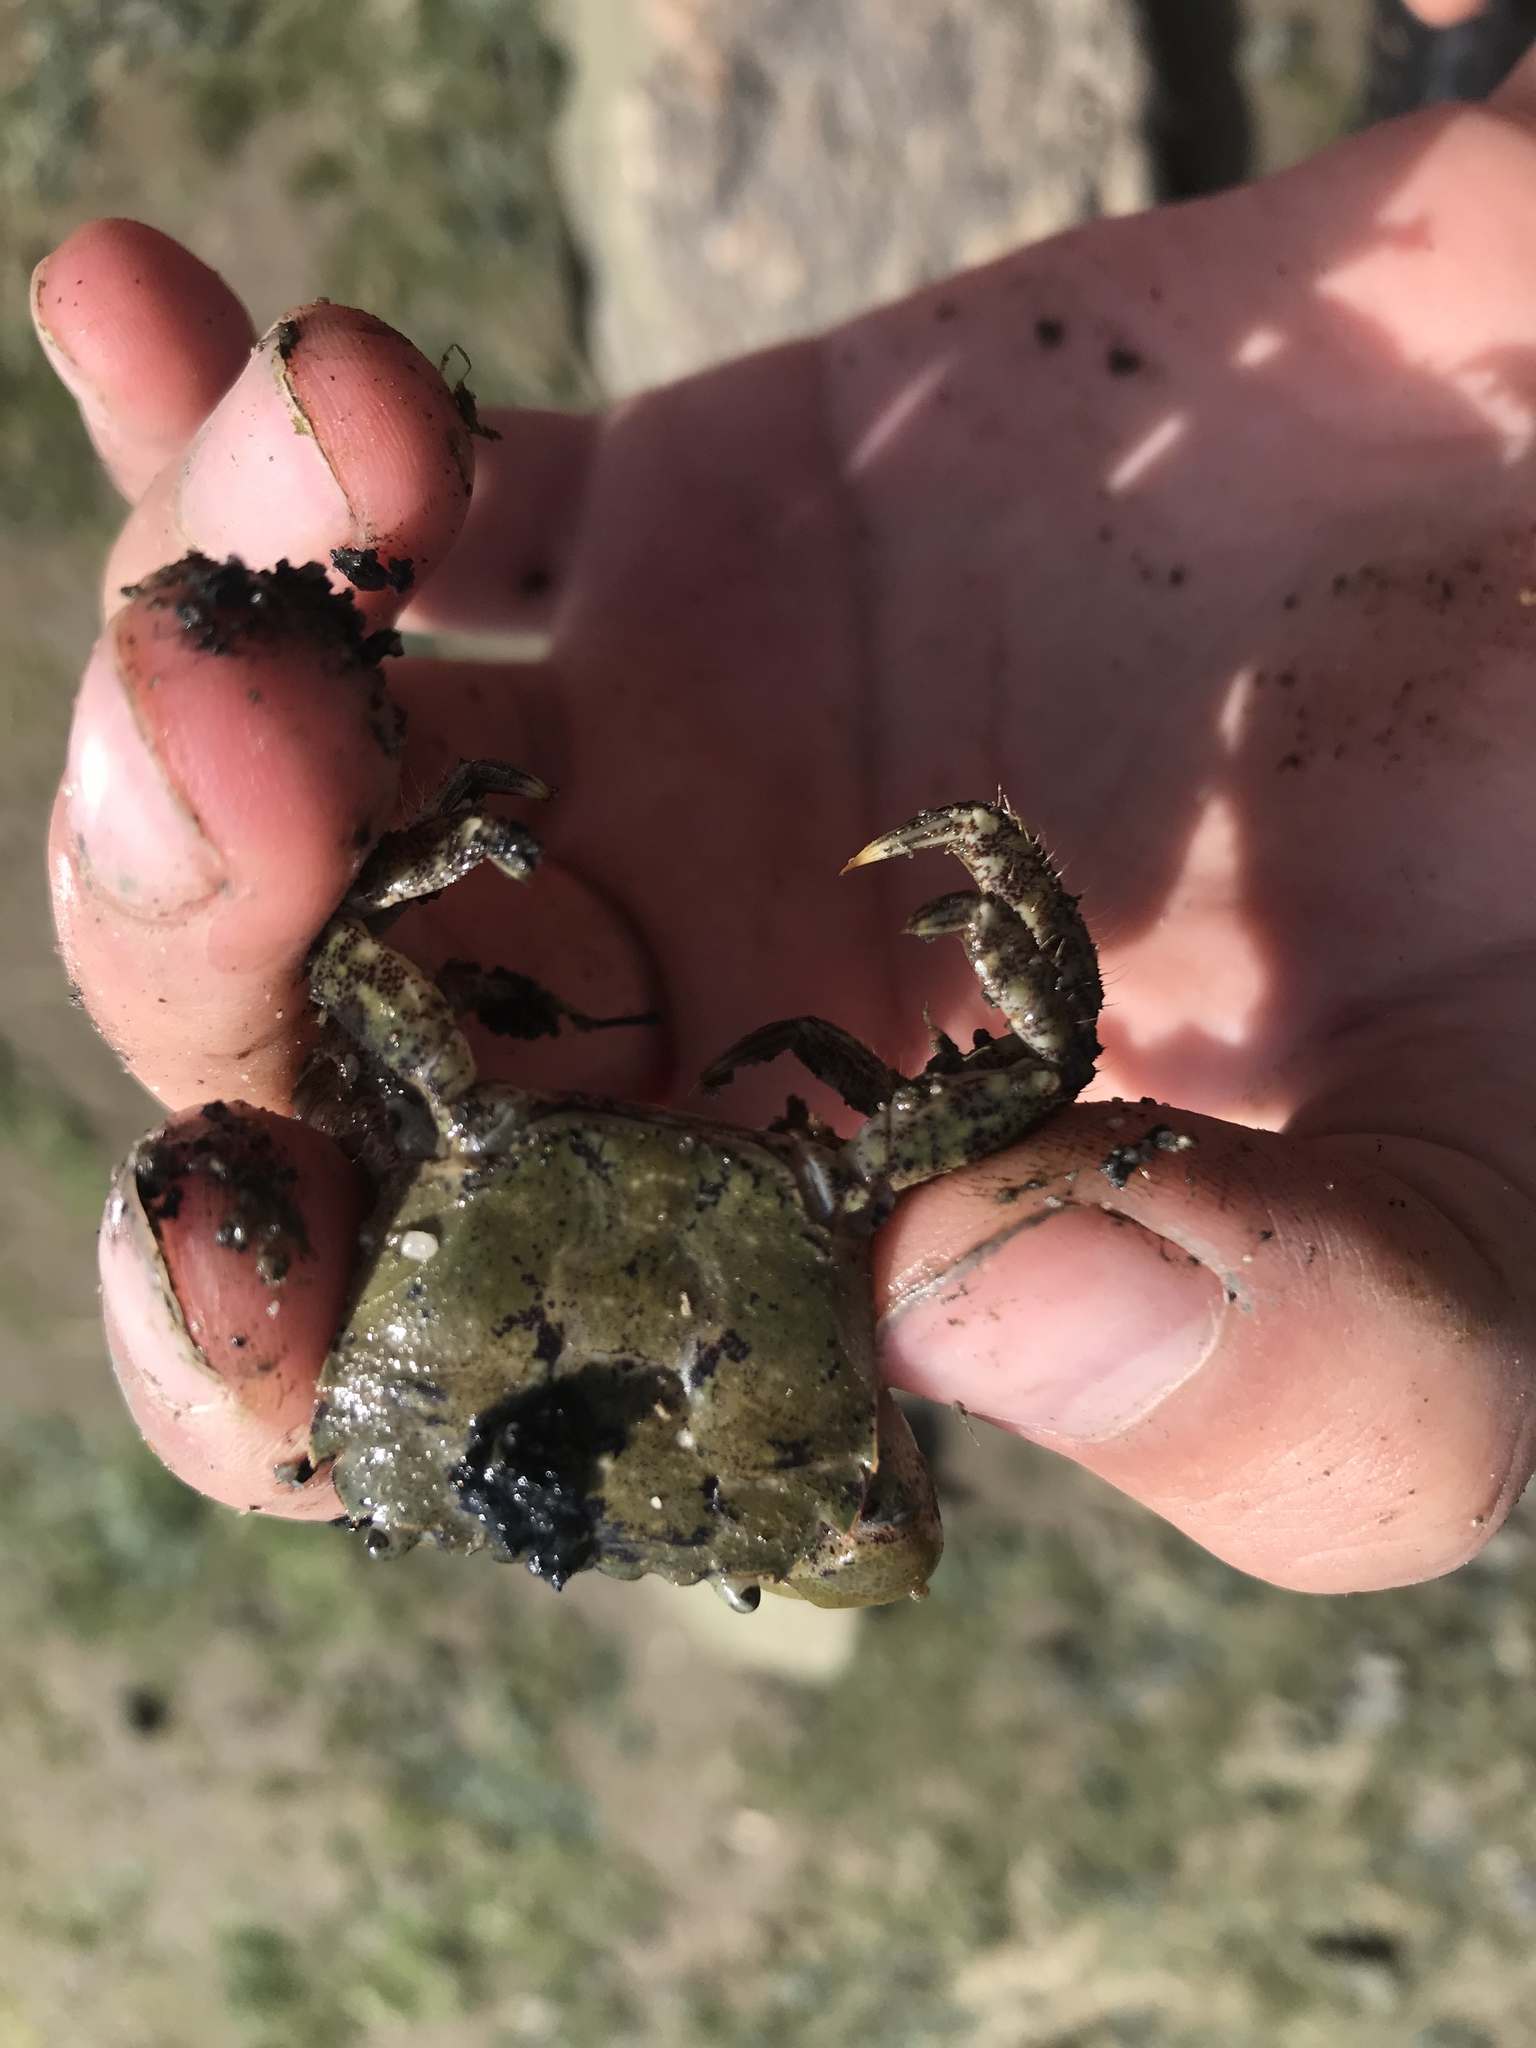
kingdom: Animalia
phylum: Arthropoda
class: Malacostraca
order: Decapoda
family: Varunidae
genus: Hemigrapsus
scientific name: Hemigrapsus oregonensis
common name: Yellow shore crab
